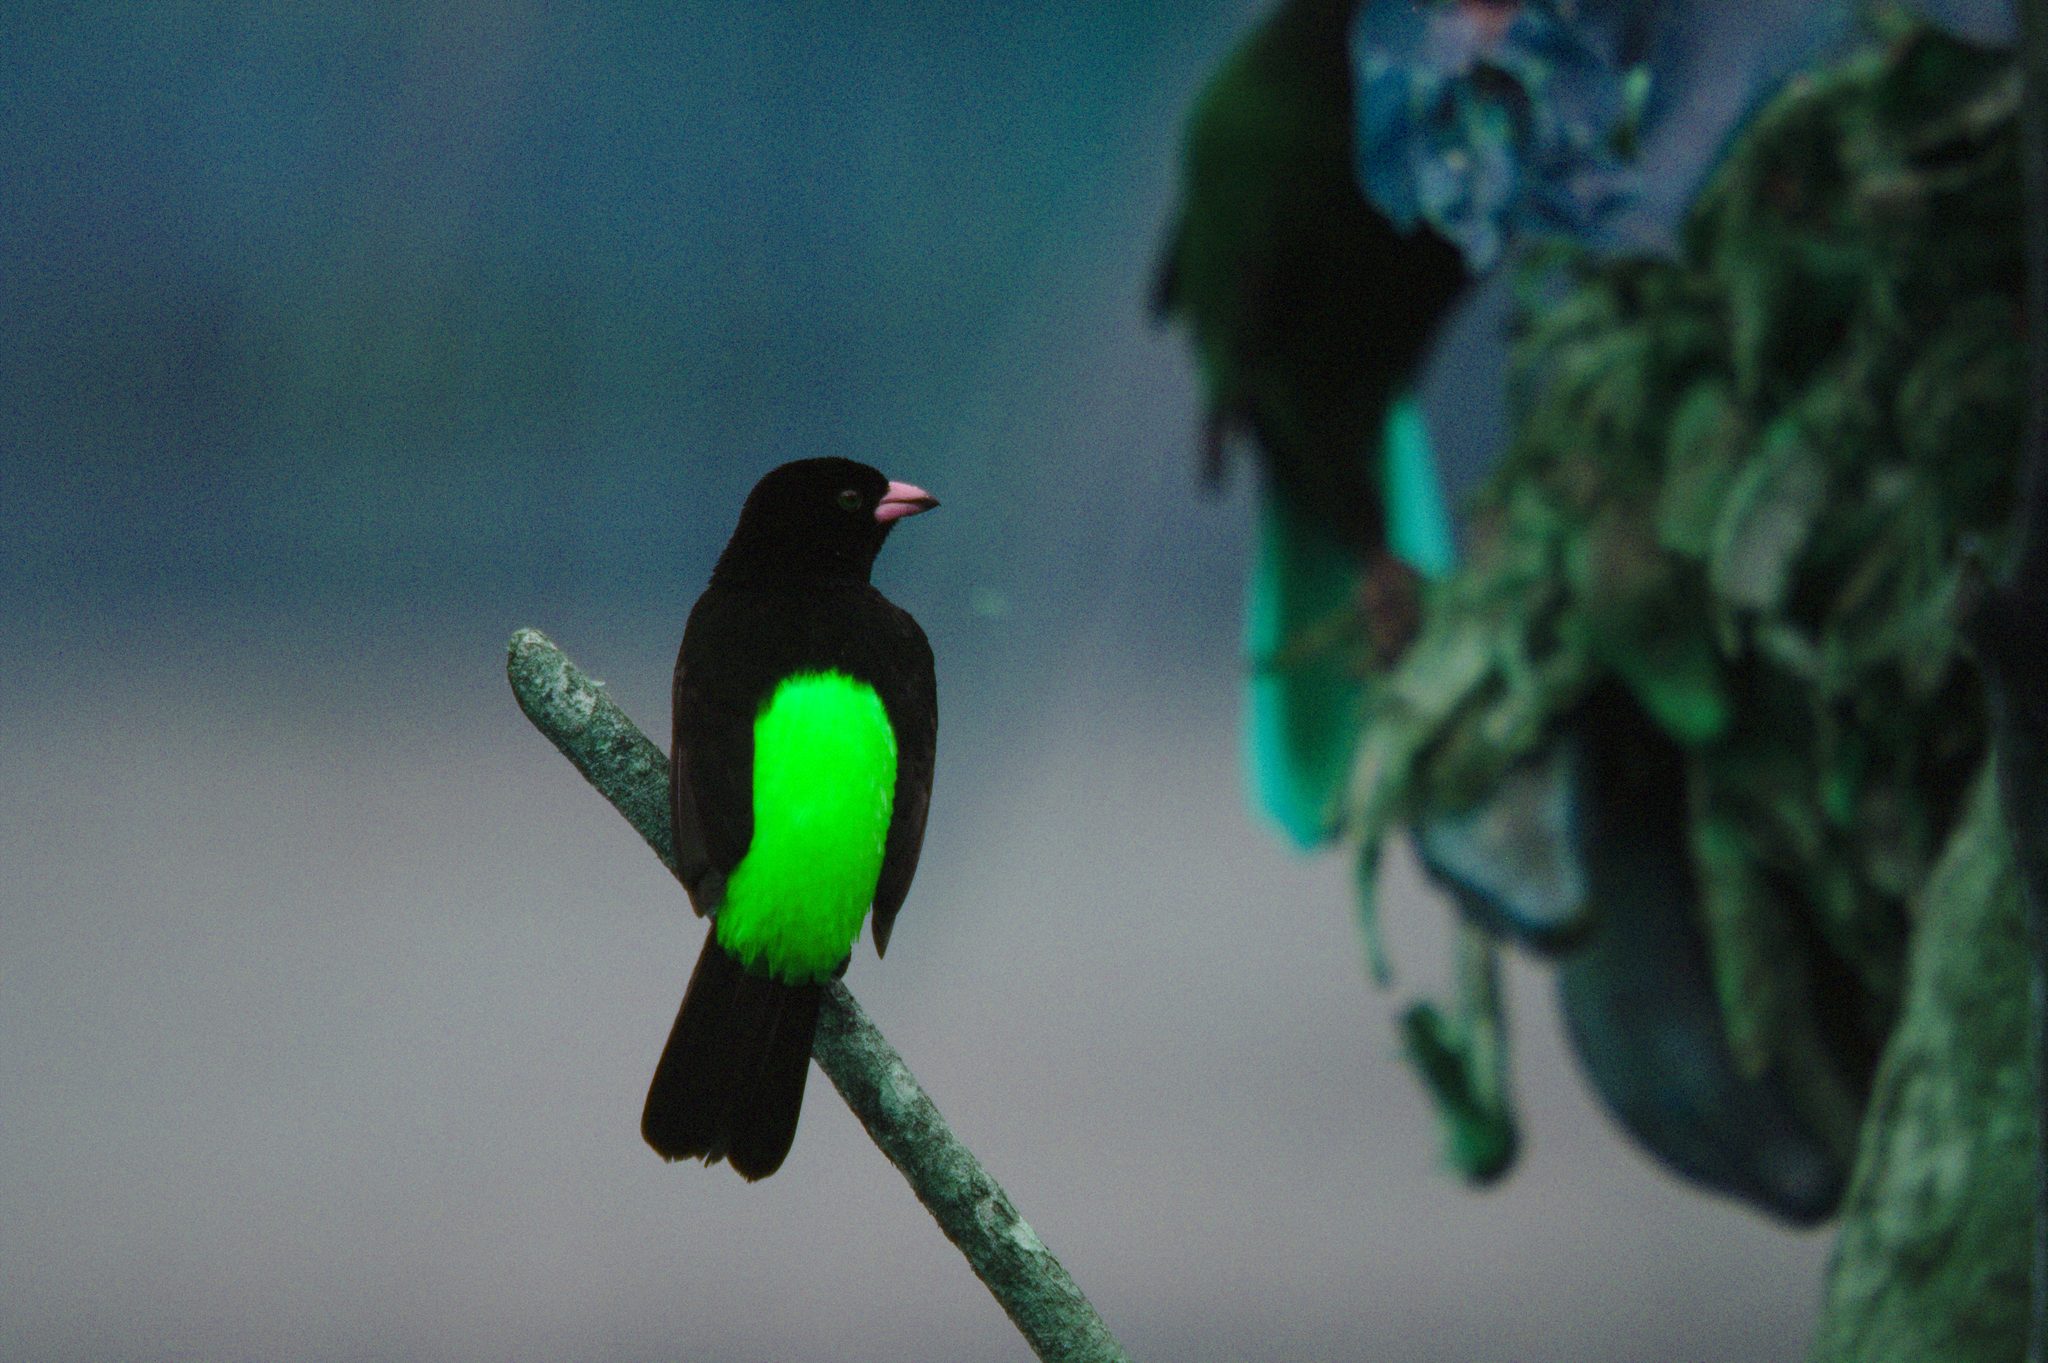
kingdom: Animalia
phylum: Chordata
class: Aves
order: Passeriformes
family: Thraupidae
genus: Ramphocelus
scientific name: Ramphocelus passerinii
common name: Passerini's tanager
